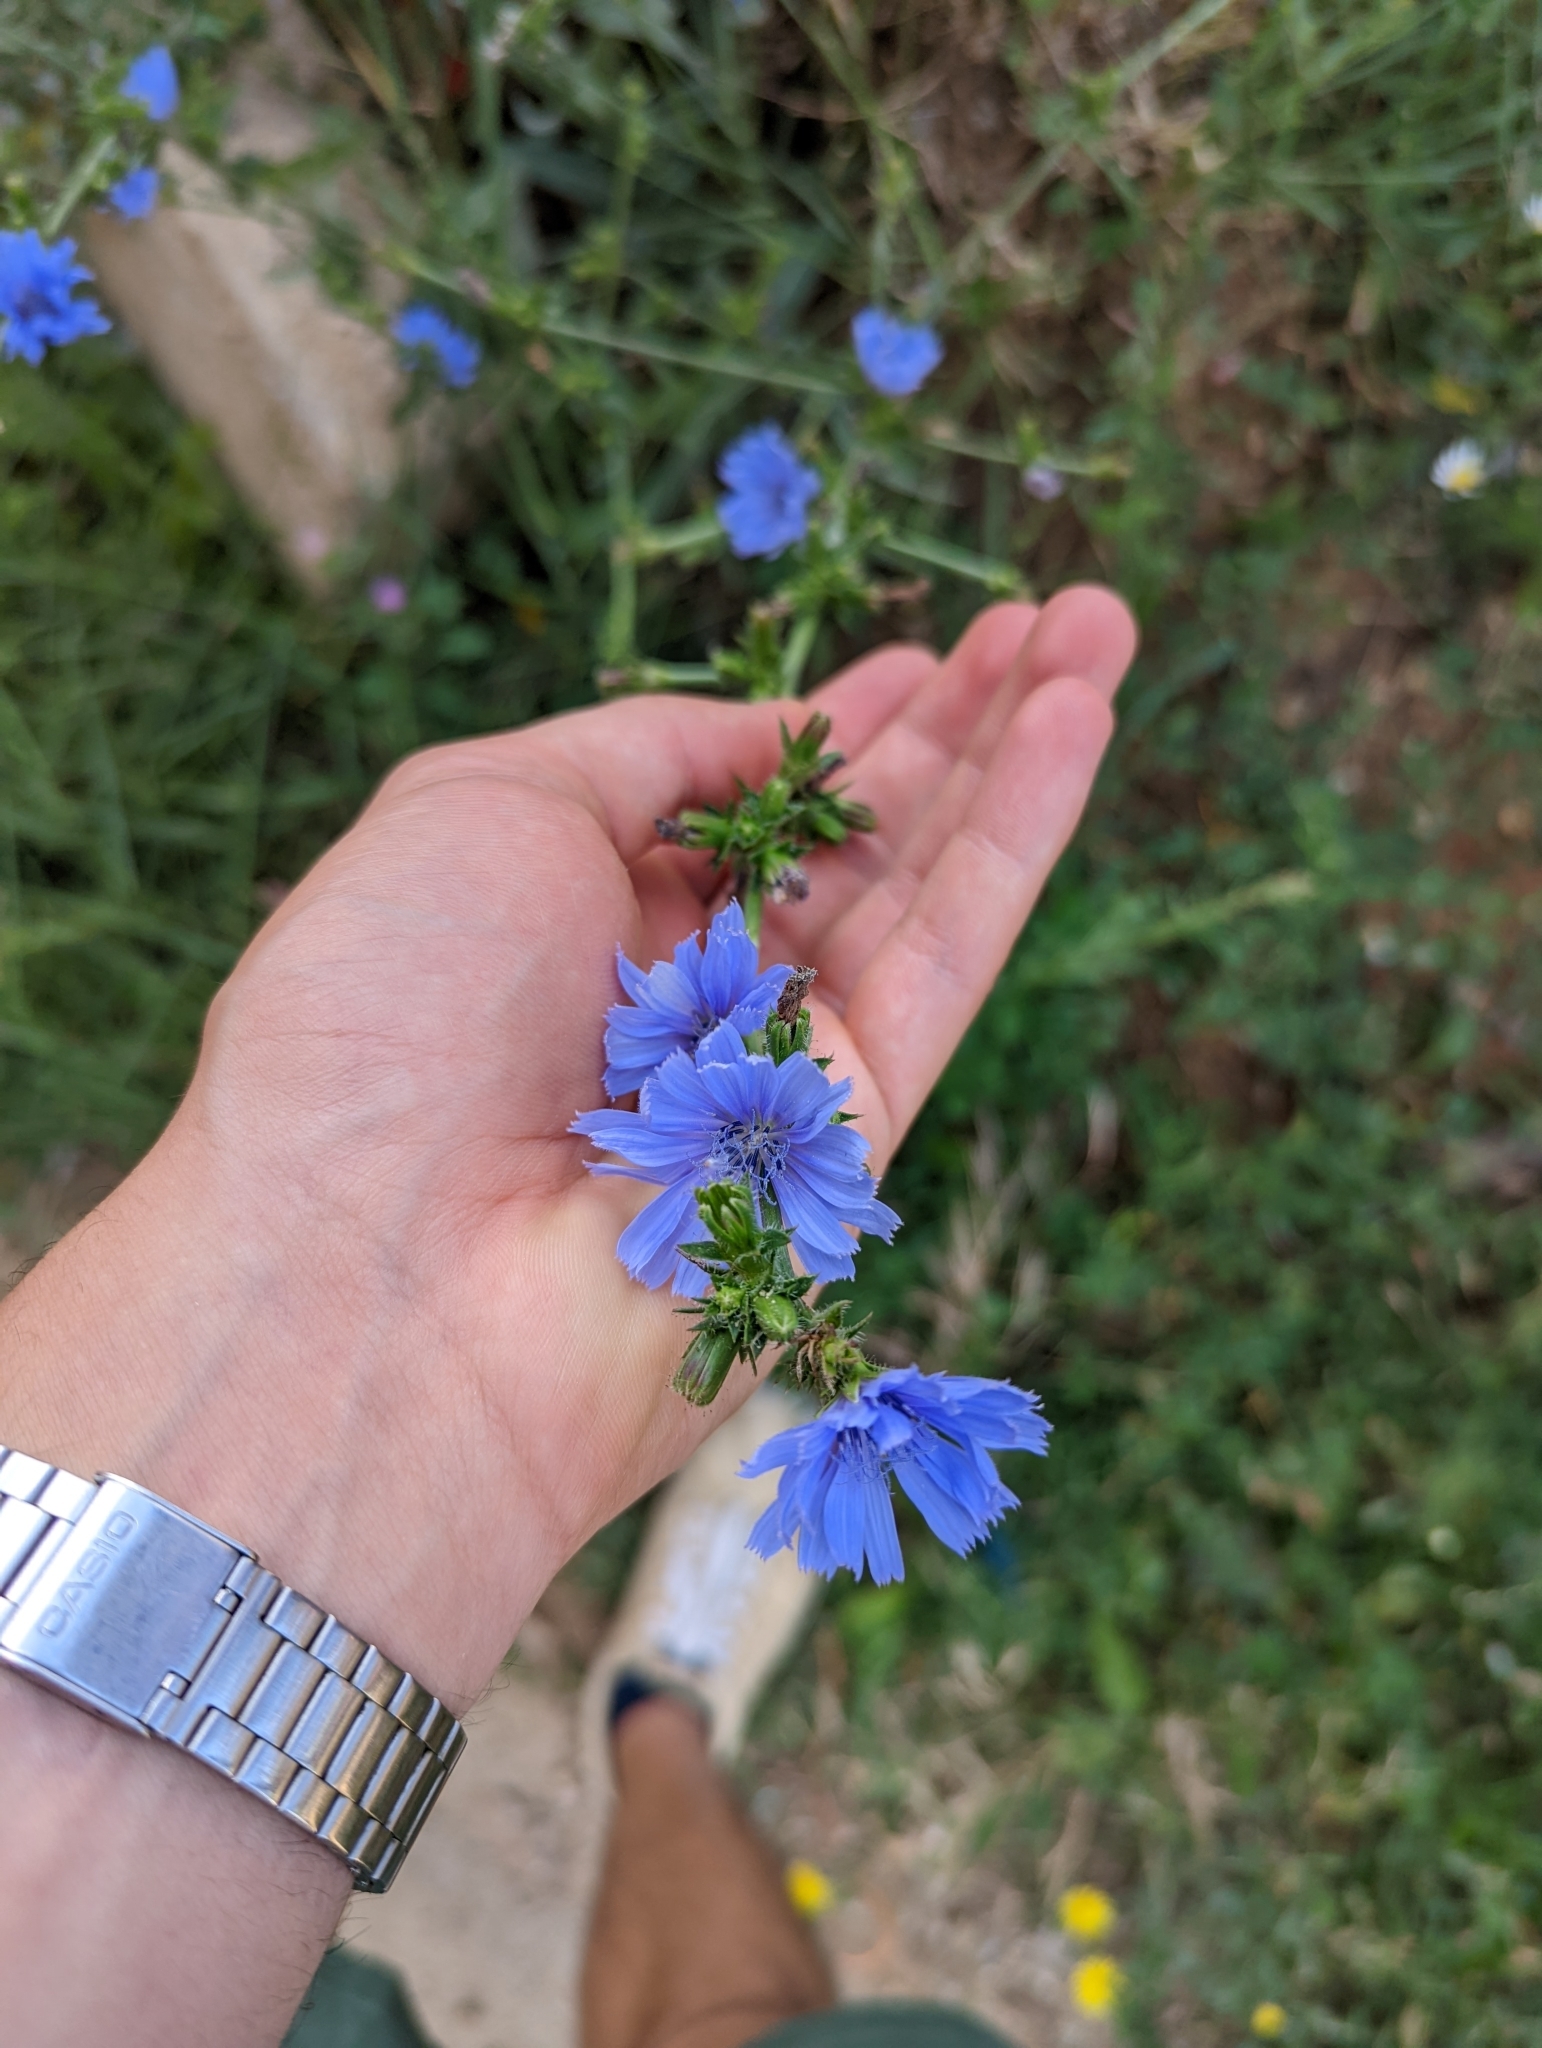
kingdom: Plantae
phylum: Tracheophyta
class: Magnoliopsida
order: Asterales
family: Asteraceae
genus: Cichorium
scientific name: Cichorium intybus
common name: Chicory
